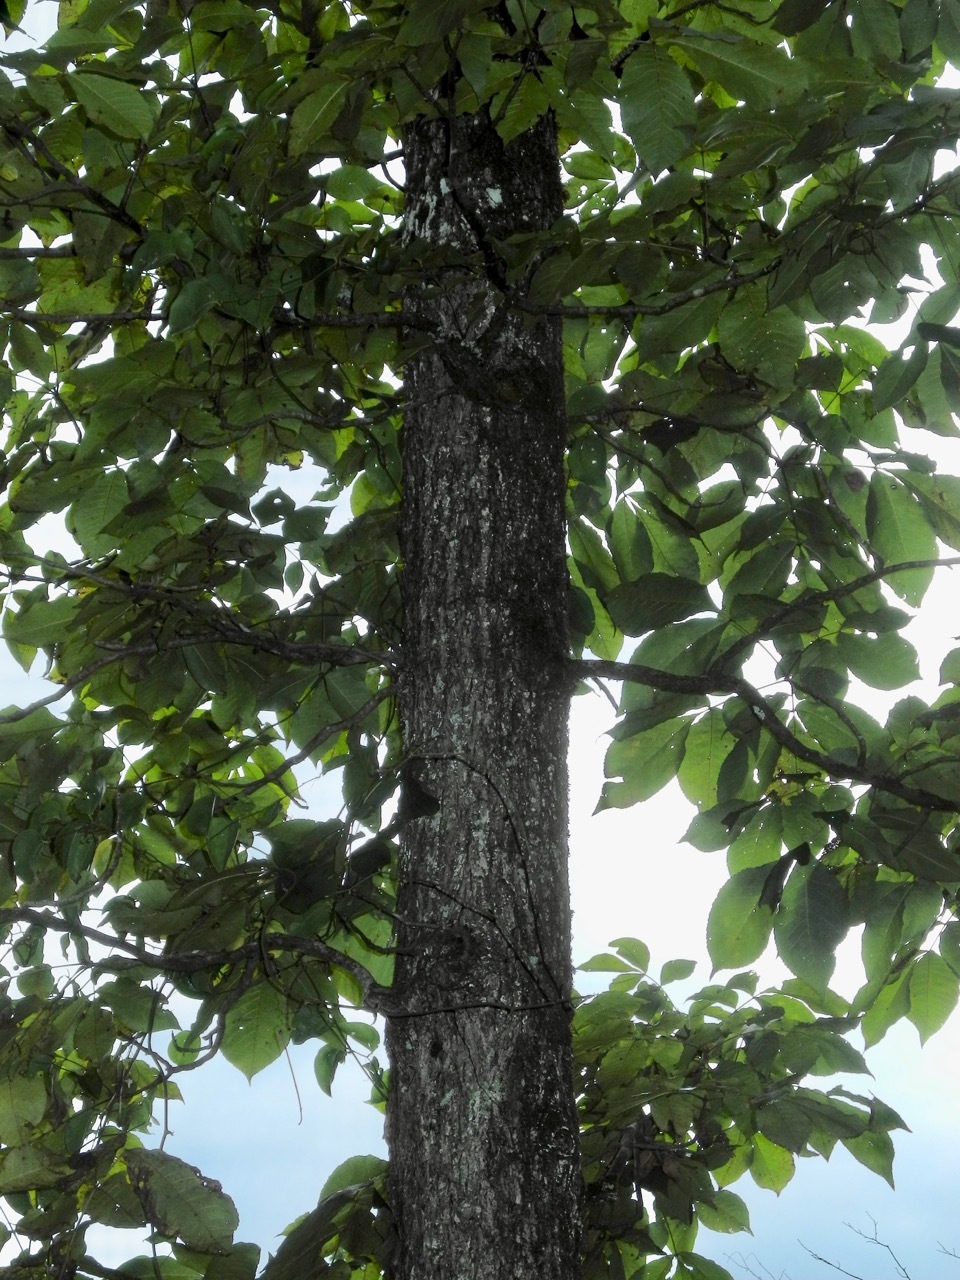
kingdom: Plantae
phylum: Tracheophyta
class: Magnoliopsida
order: Fagales
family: Juglandaceae
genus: Carya
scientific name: Carya alba
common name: Mockernut hickory
